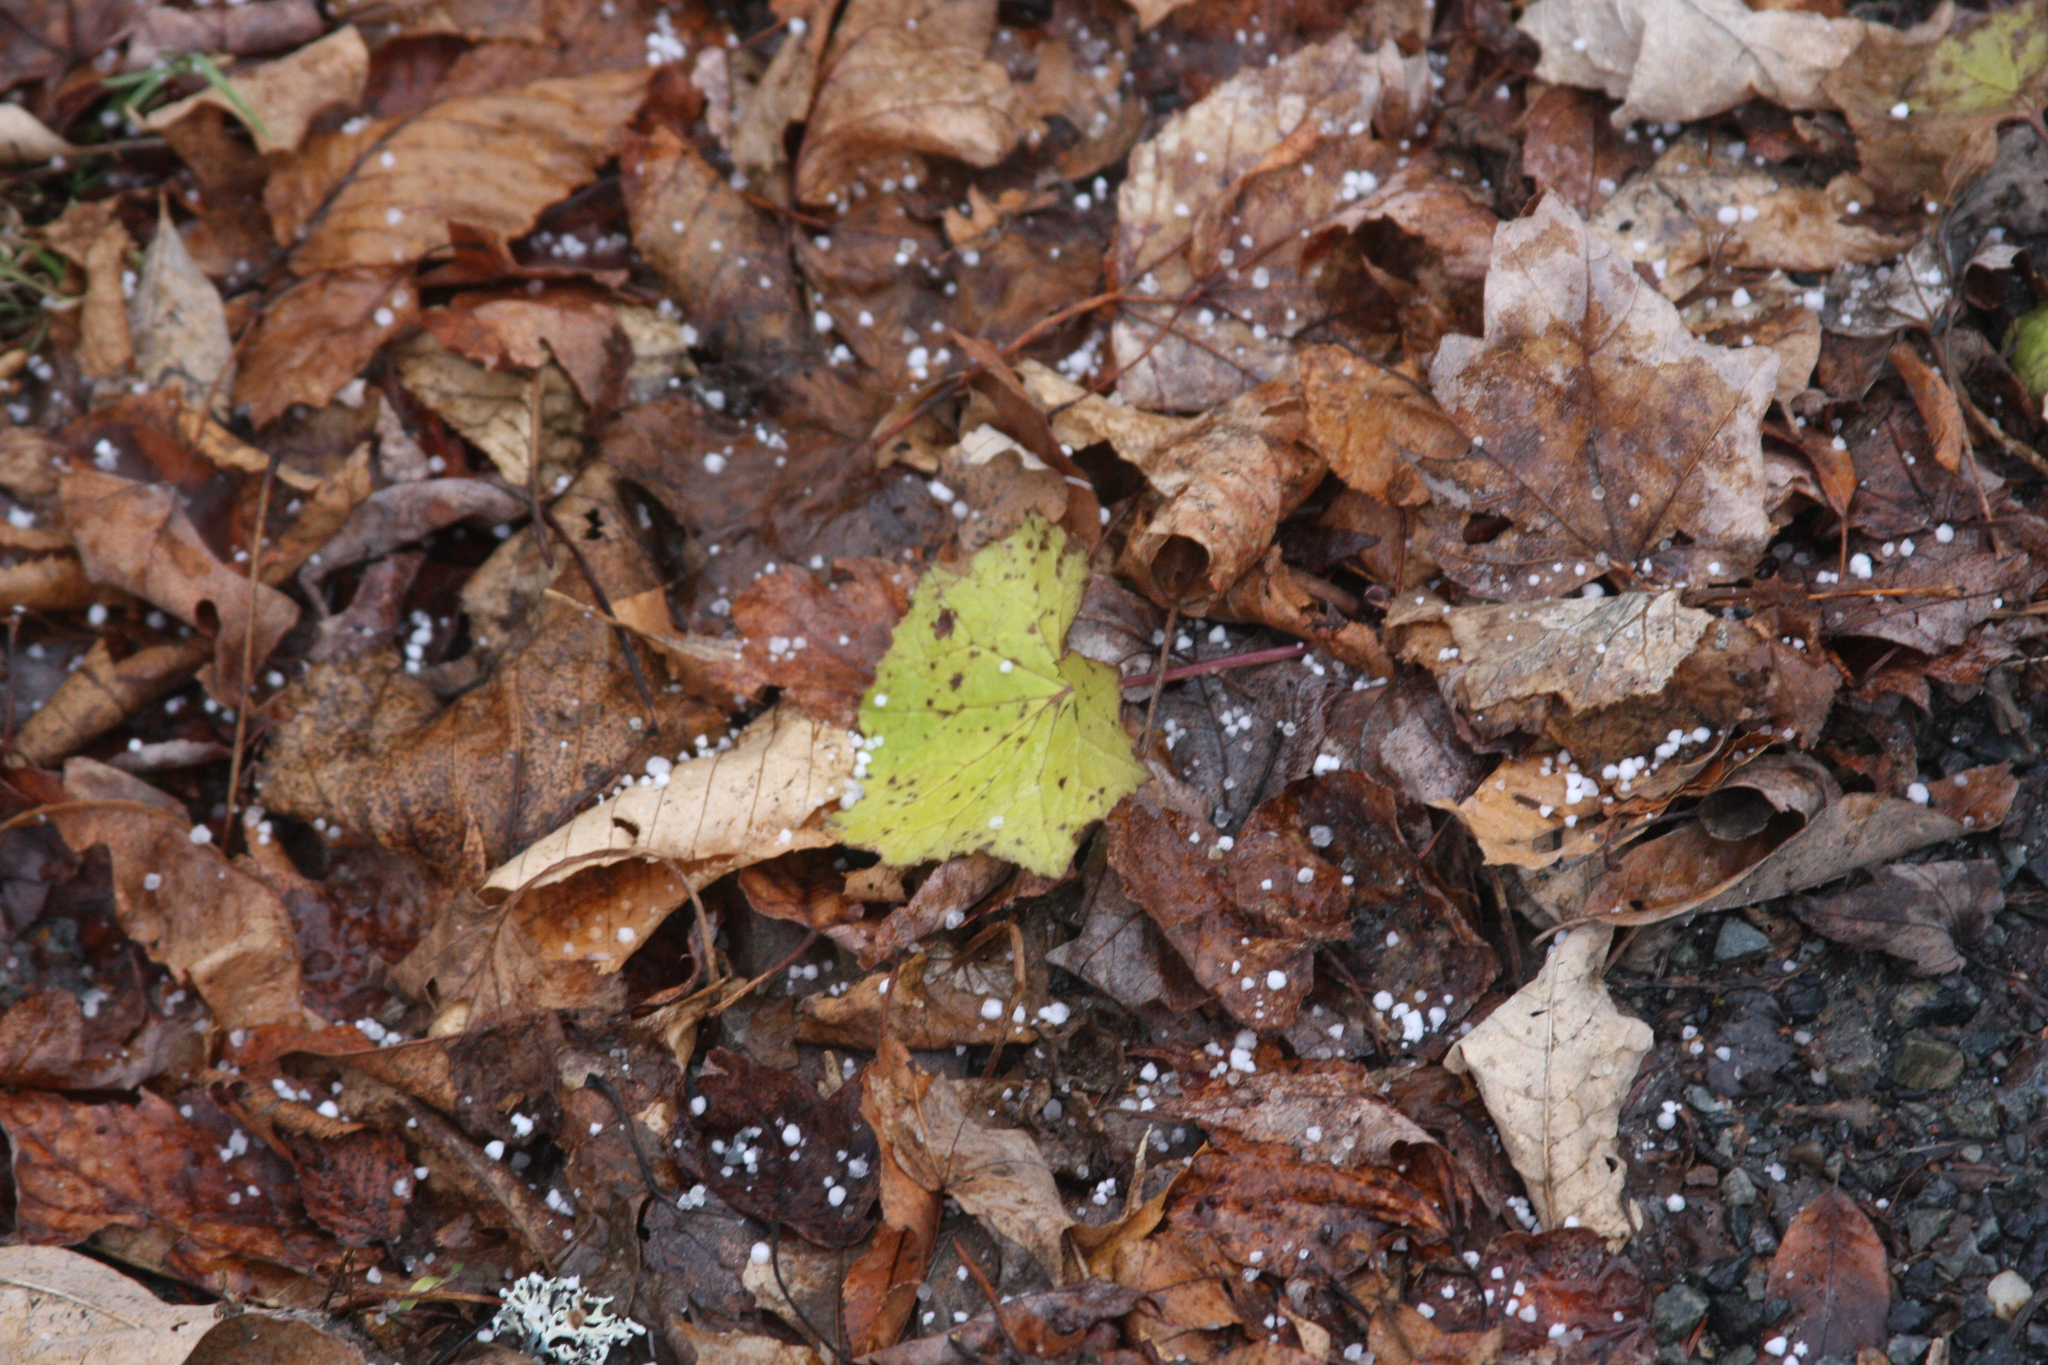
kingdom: Plantae
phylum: Tracheophyta
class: Magnoliopsida
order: Asterales
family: Asteraceae
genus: Tussilago
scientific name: Tussilago farfara
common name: Coltsfoot
